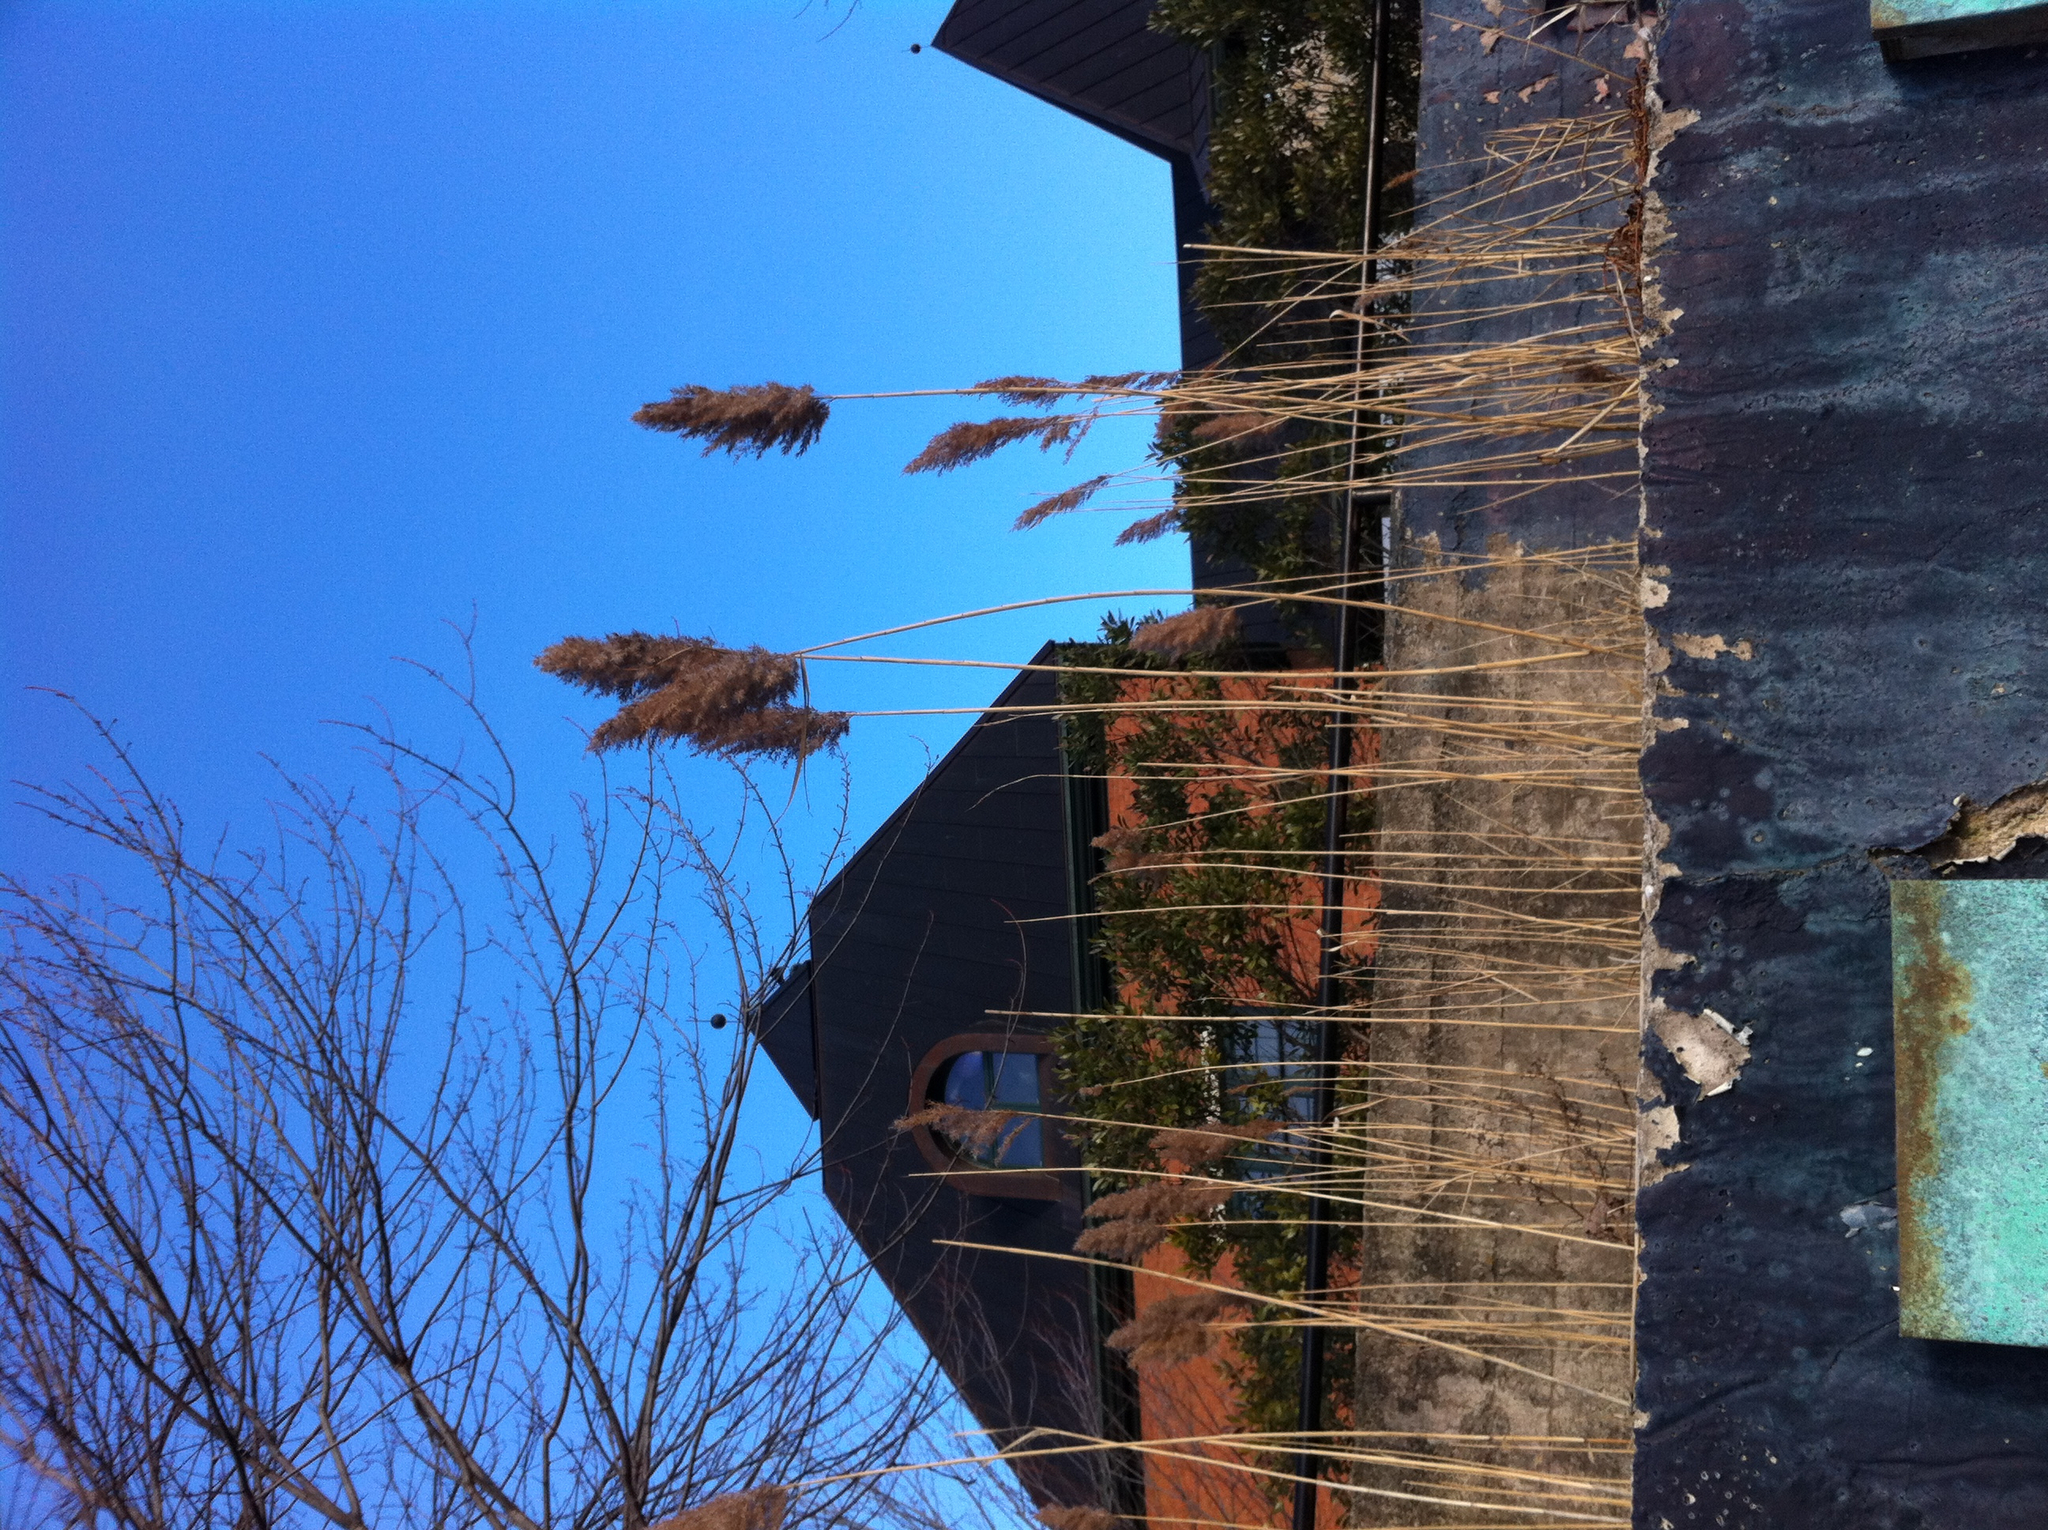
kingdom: Plantae
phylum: Tracheophyta
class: Liliopsida
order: Poales
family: Poaceae
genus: Phragmites
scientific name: Phragmites australis
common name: Common reed
